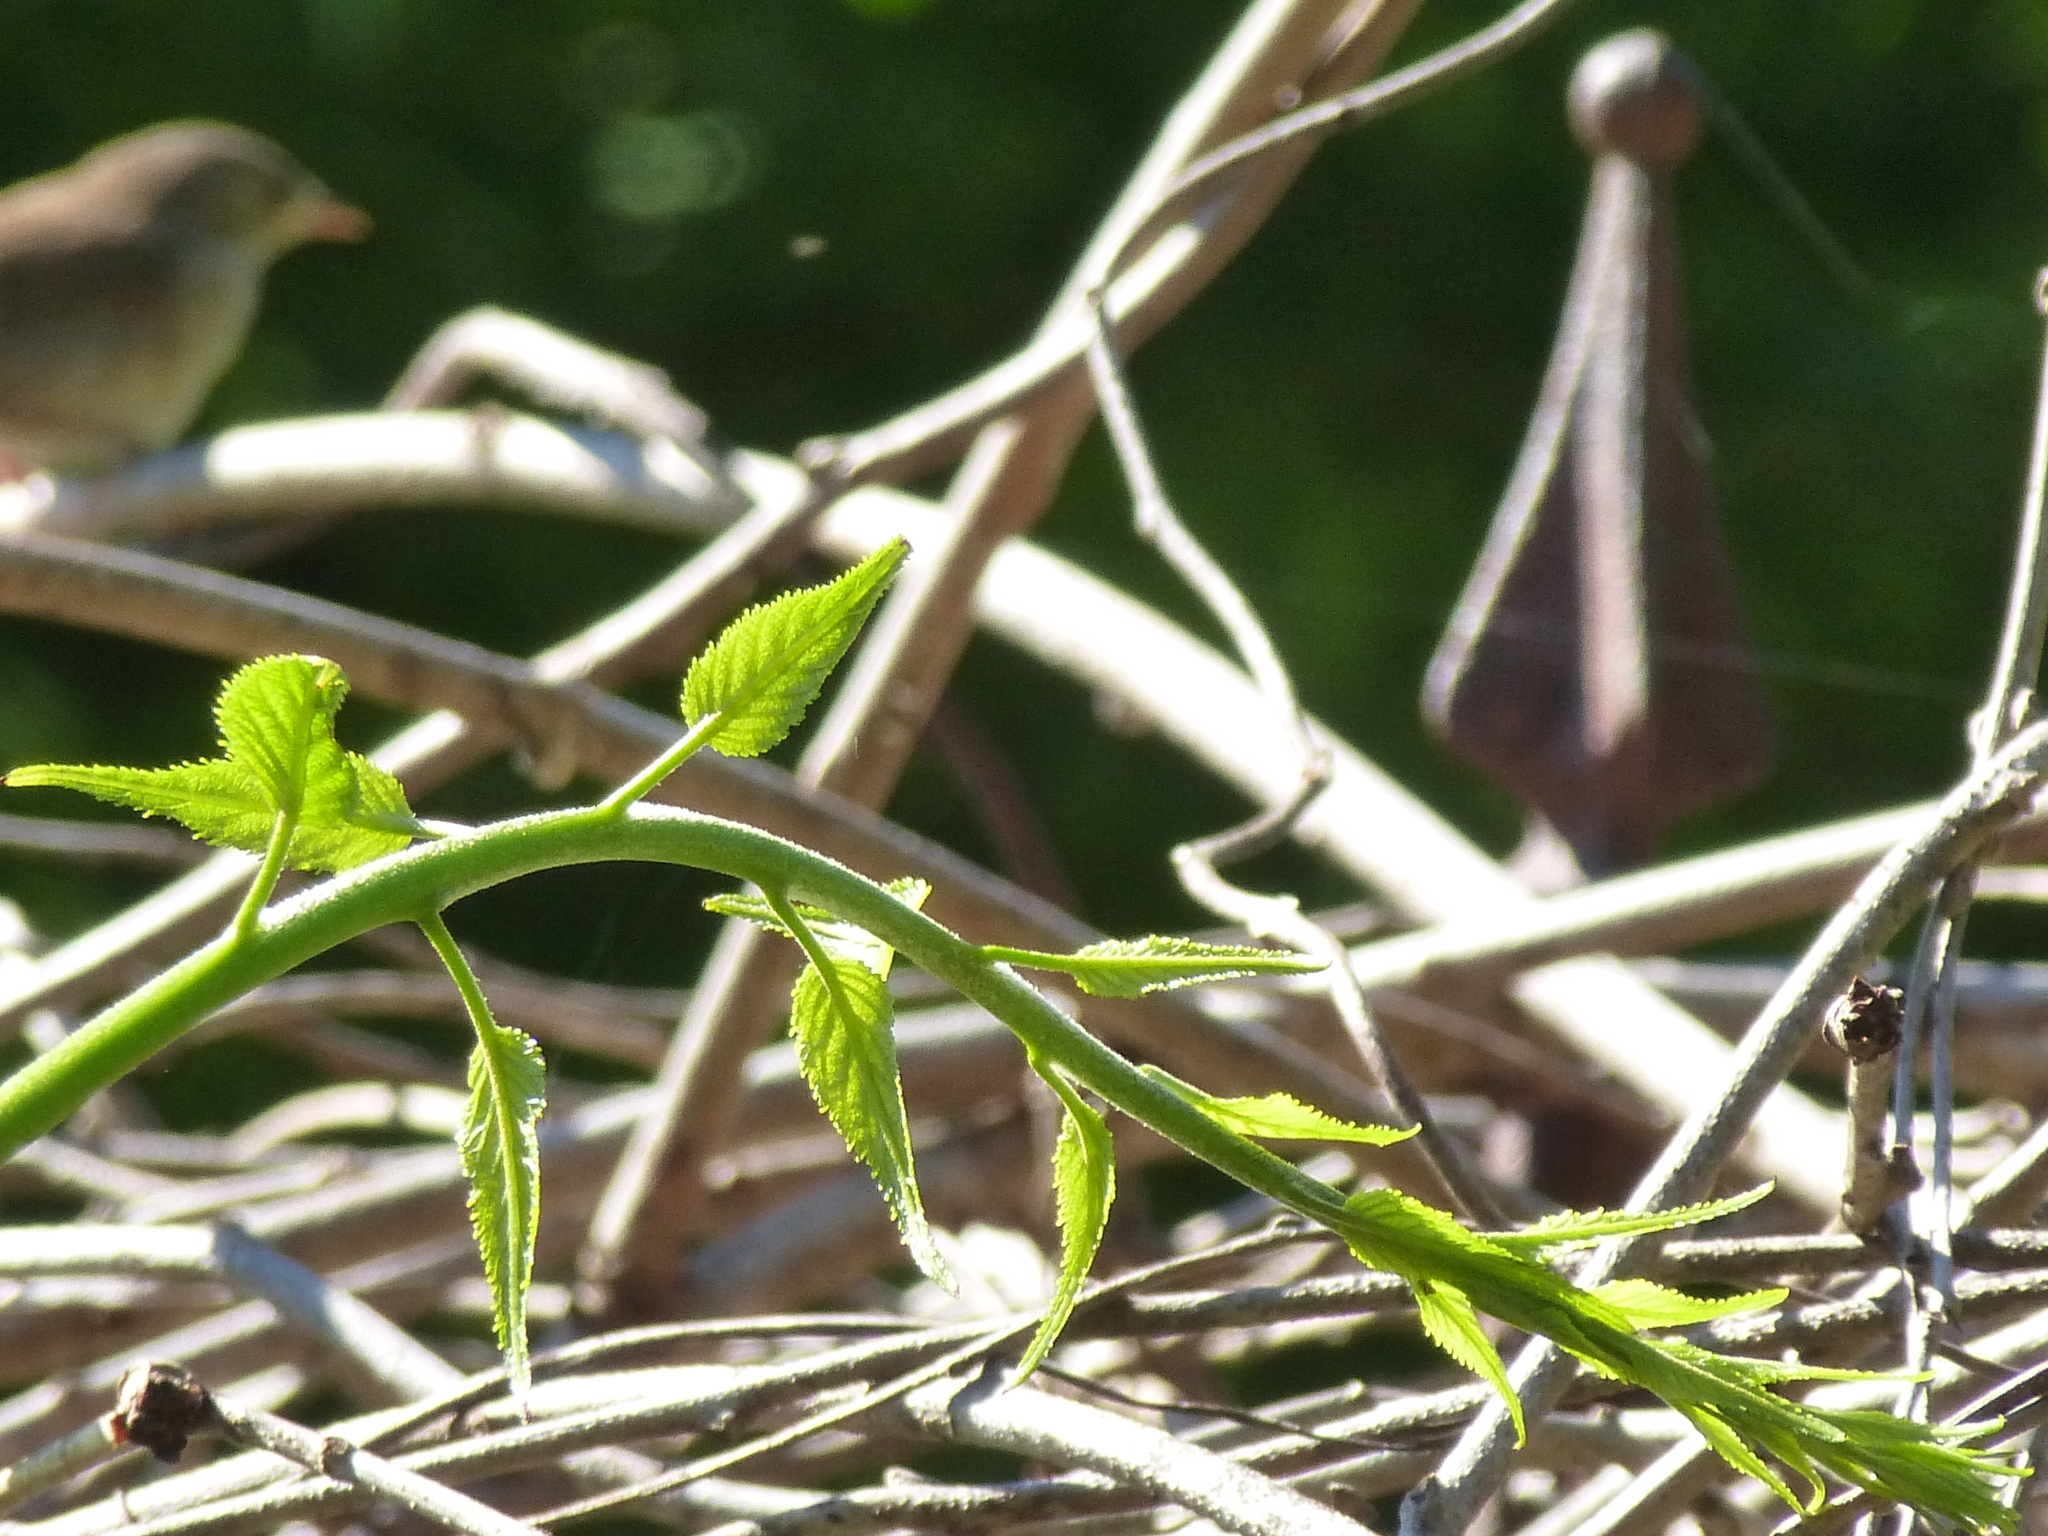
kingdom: Animalia
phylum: Chordata
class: Aves
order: Passeriformes
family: Troglodytidae
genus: Troglodytes
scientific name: Troglodytes aedon
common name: House wren
